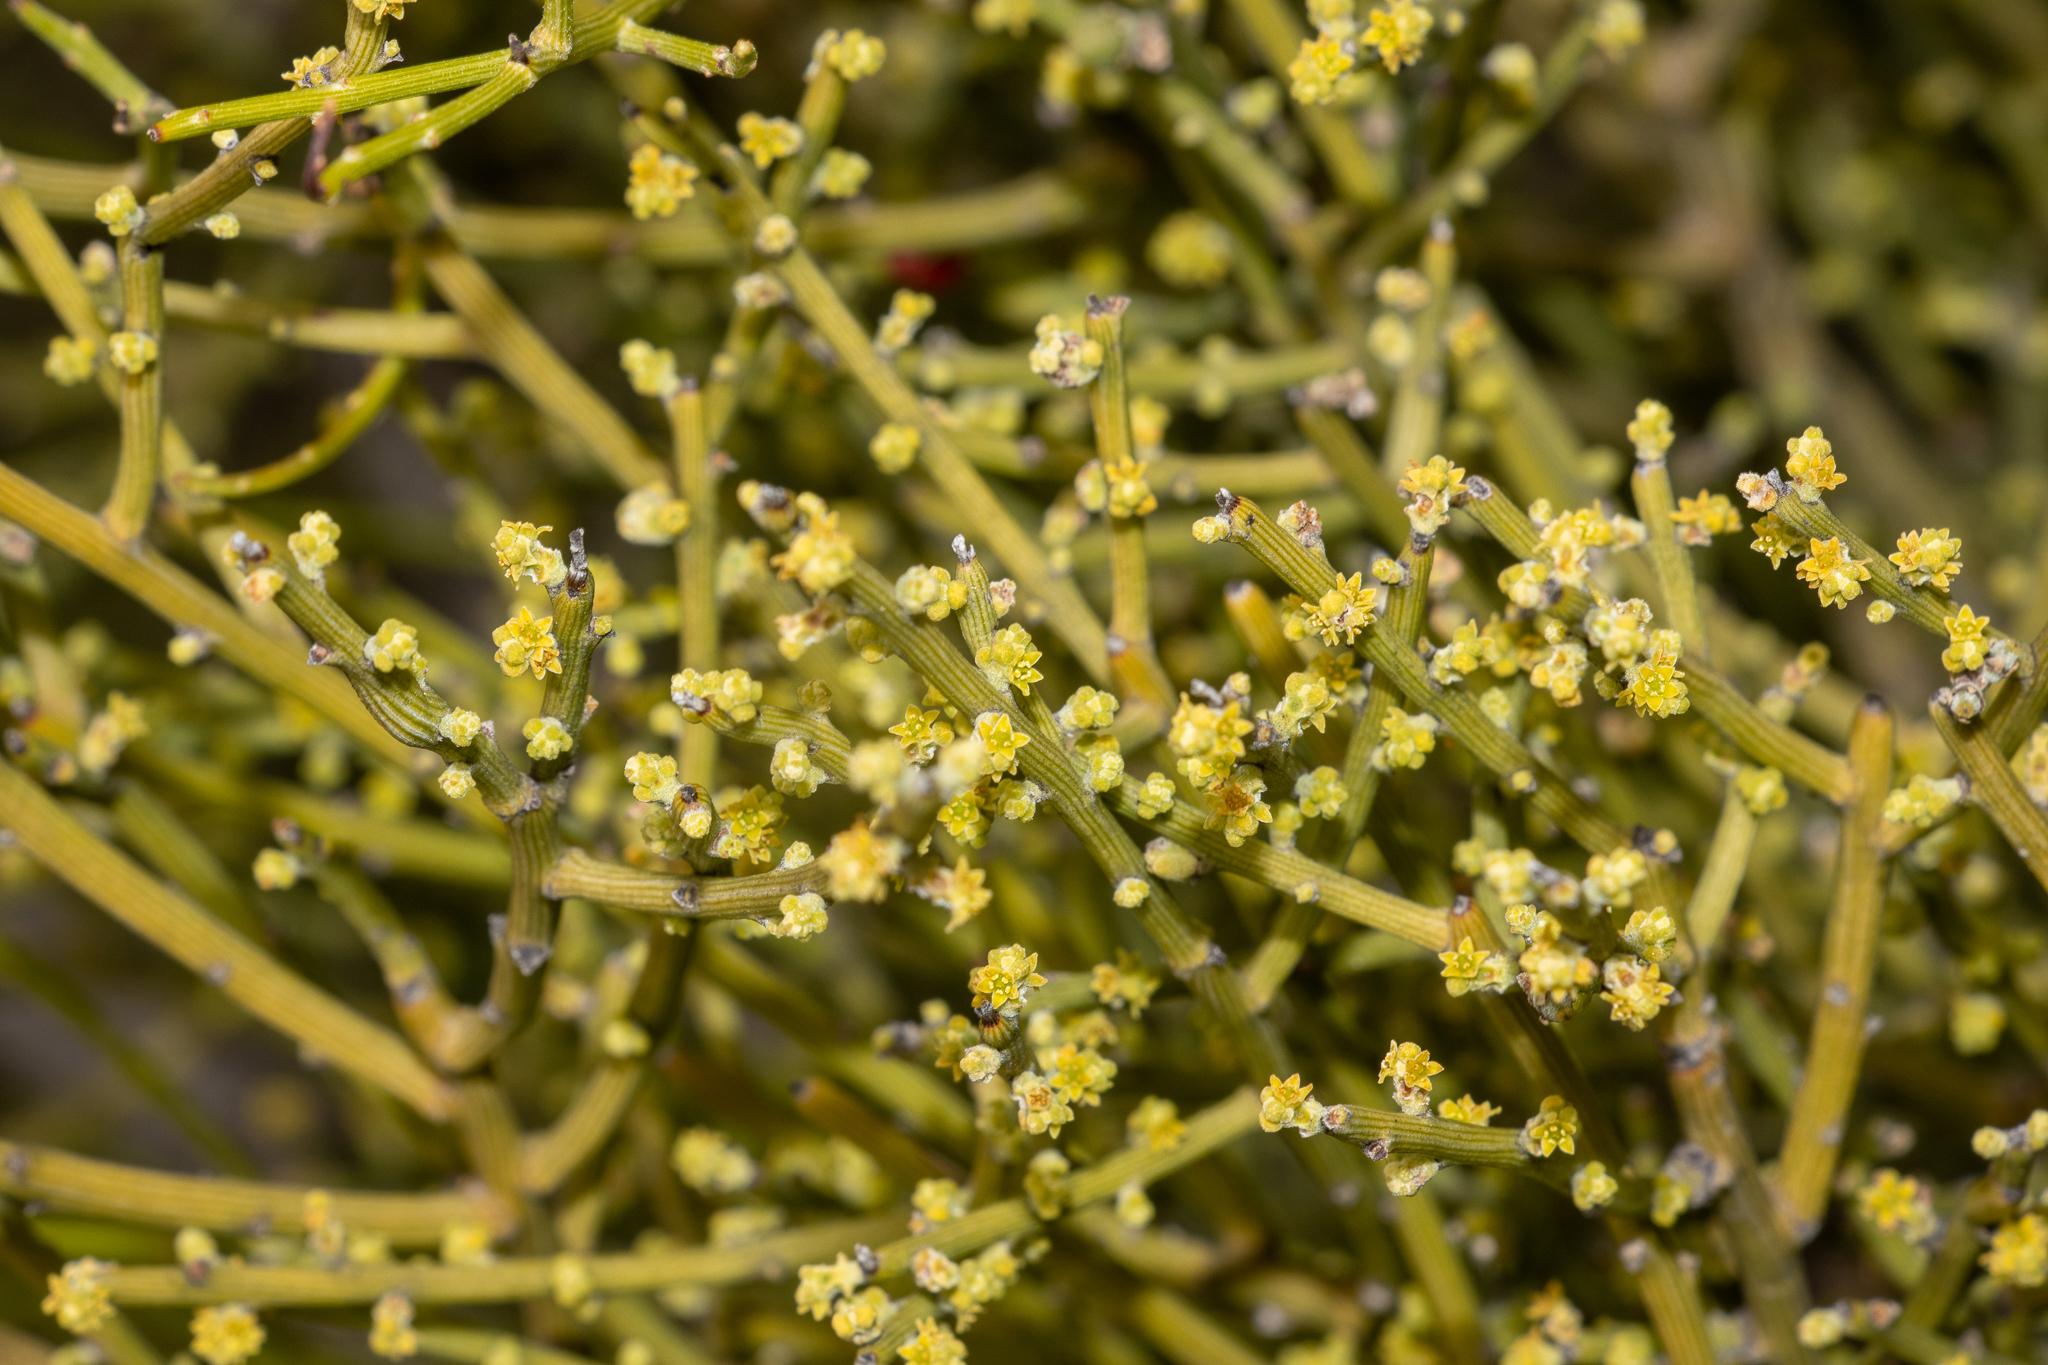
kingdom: Plantae
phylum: Tracheophyta
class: Magnoliopsida
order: Santalales
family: Santalaceae
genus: Exocarpos
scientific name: Exocarpos aphyllus
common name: Leafless ballart
